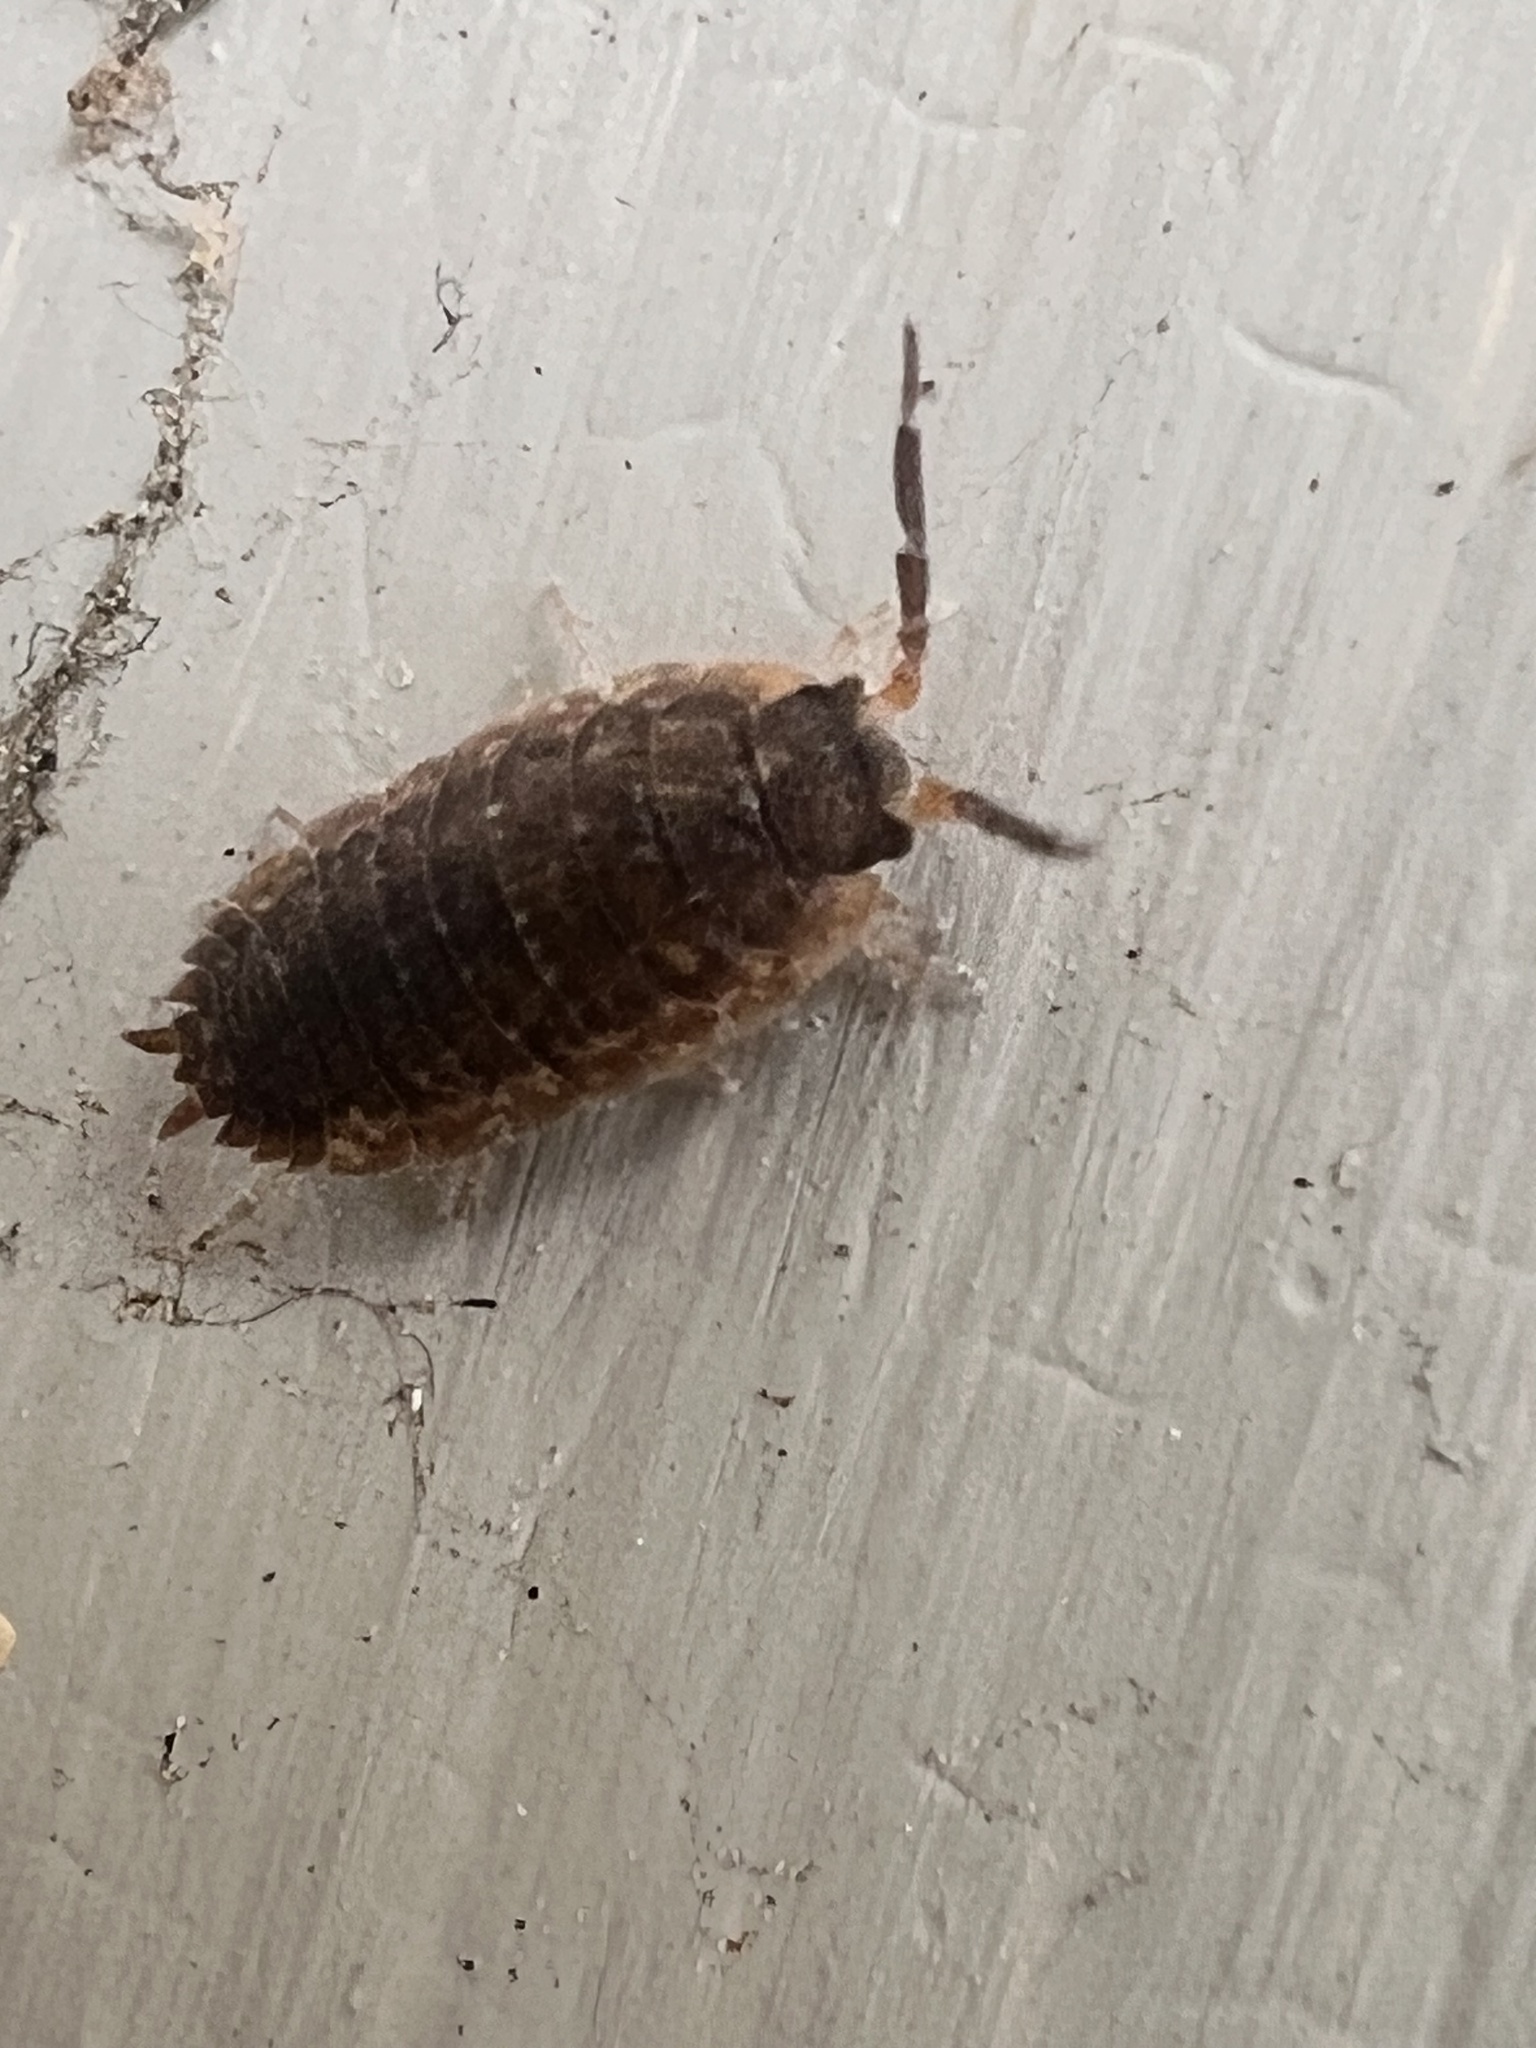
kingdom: Animalia
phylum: Arthropoda
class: Malacostraca
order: Isopoda
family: Porcellionidae
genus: Porcellio
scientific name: Porcellio scaber
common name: Common rough woodlouse
